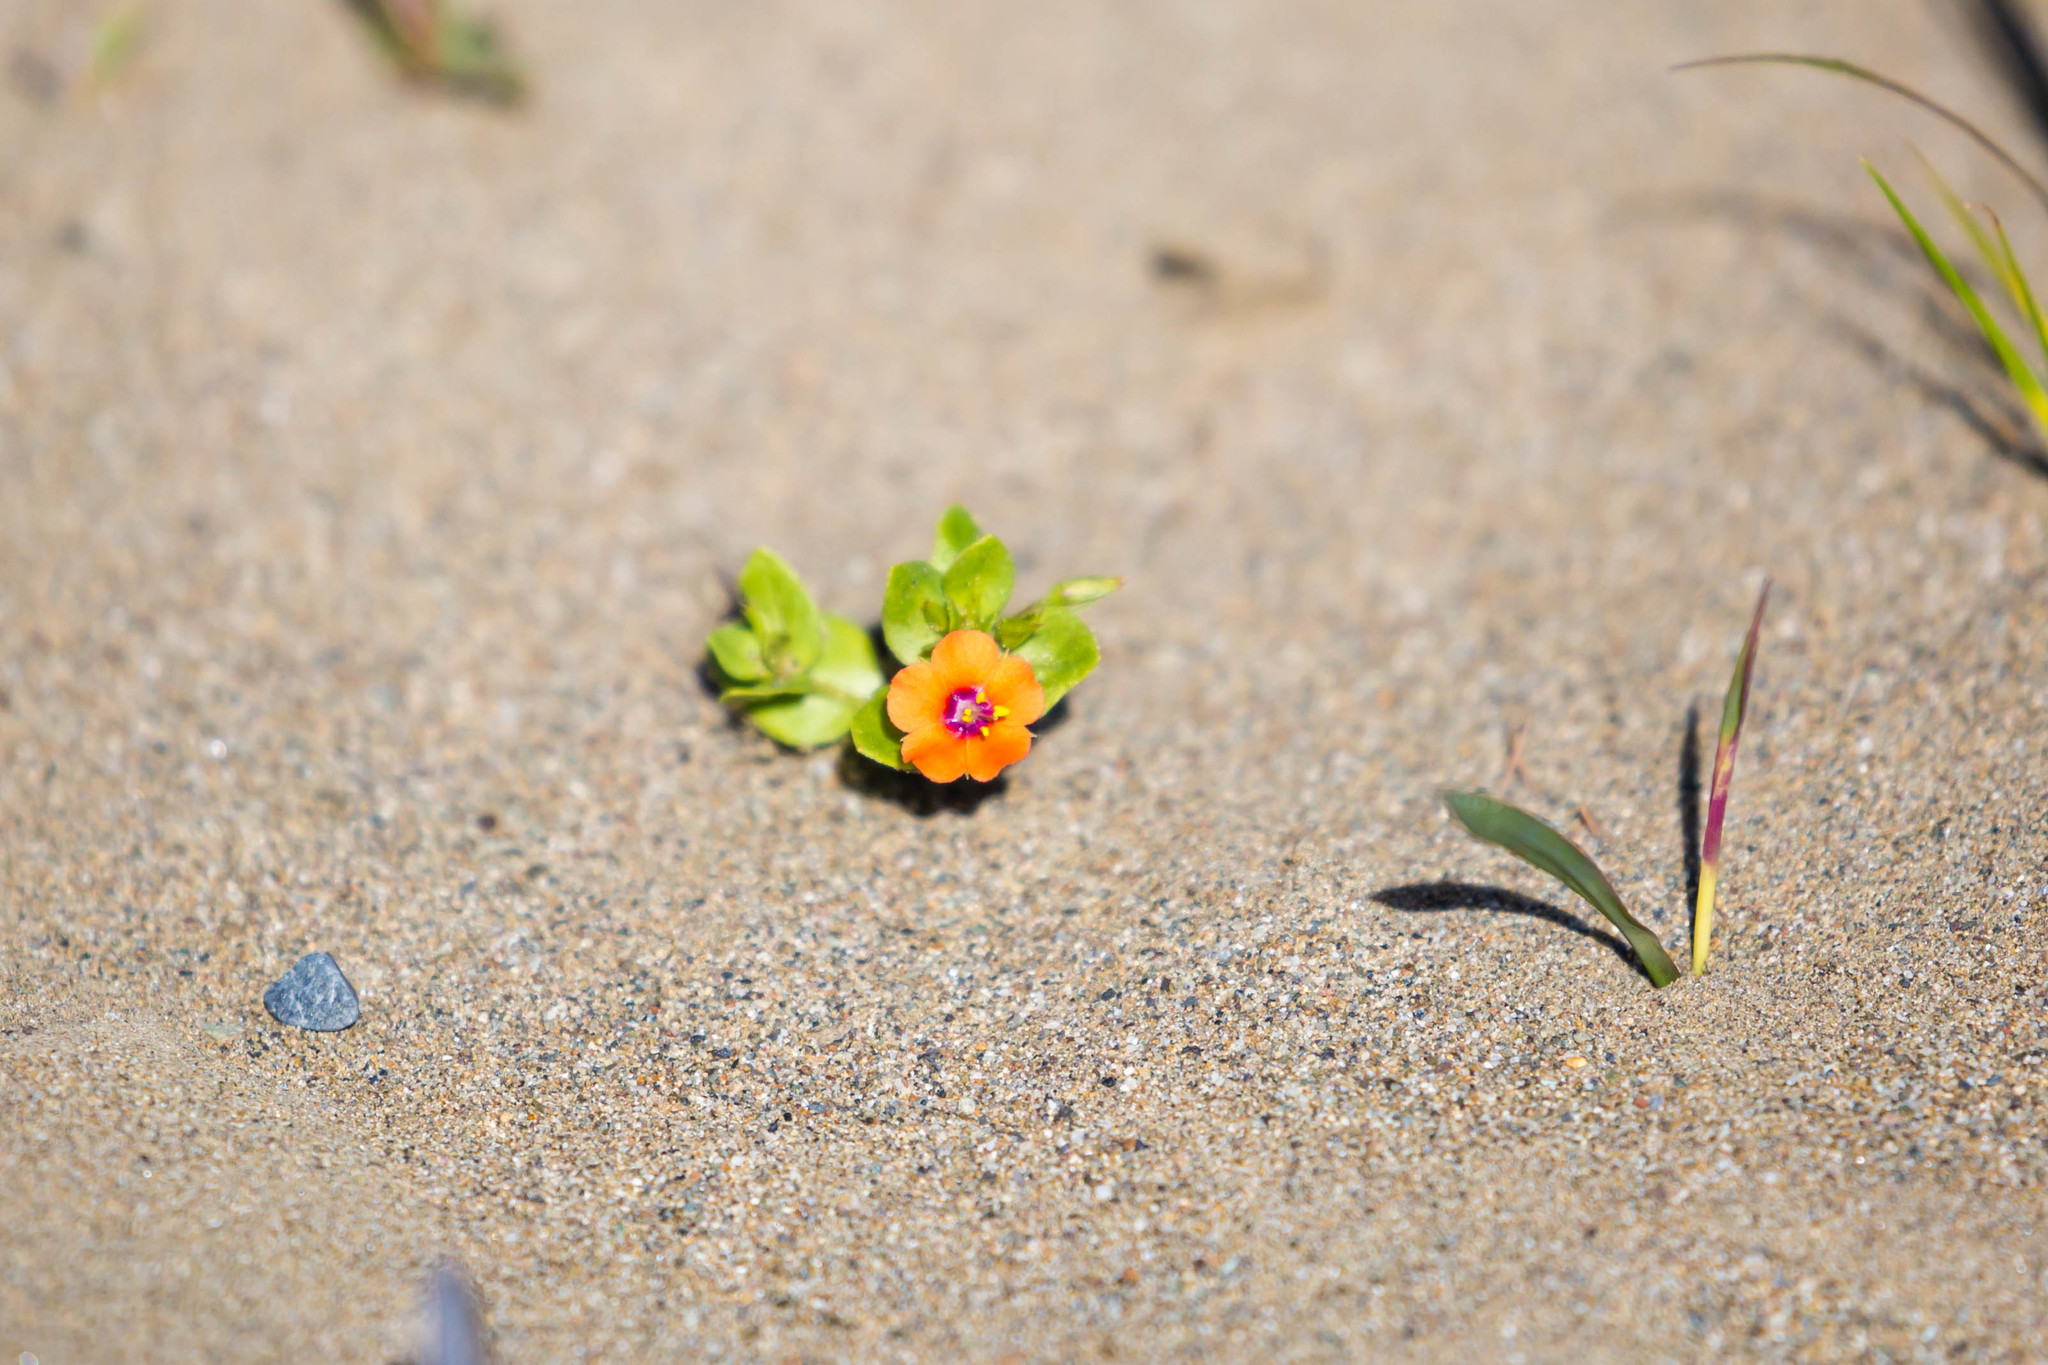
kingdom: Plantae
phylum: Tracheophyta
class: Magnoliopsida
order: Ericales
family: Primulaceae
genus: Lysimachia
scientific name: Lysimachia arvensis
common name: Scarlet pimpernel
